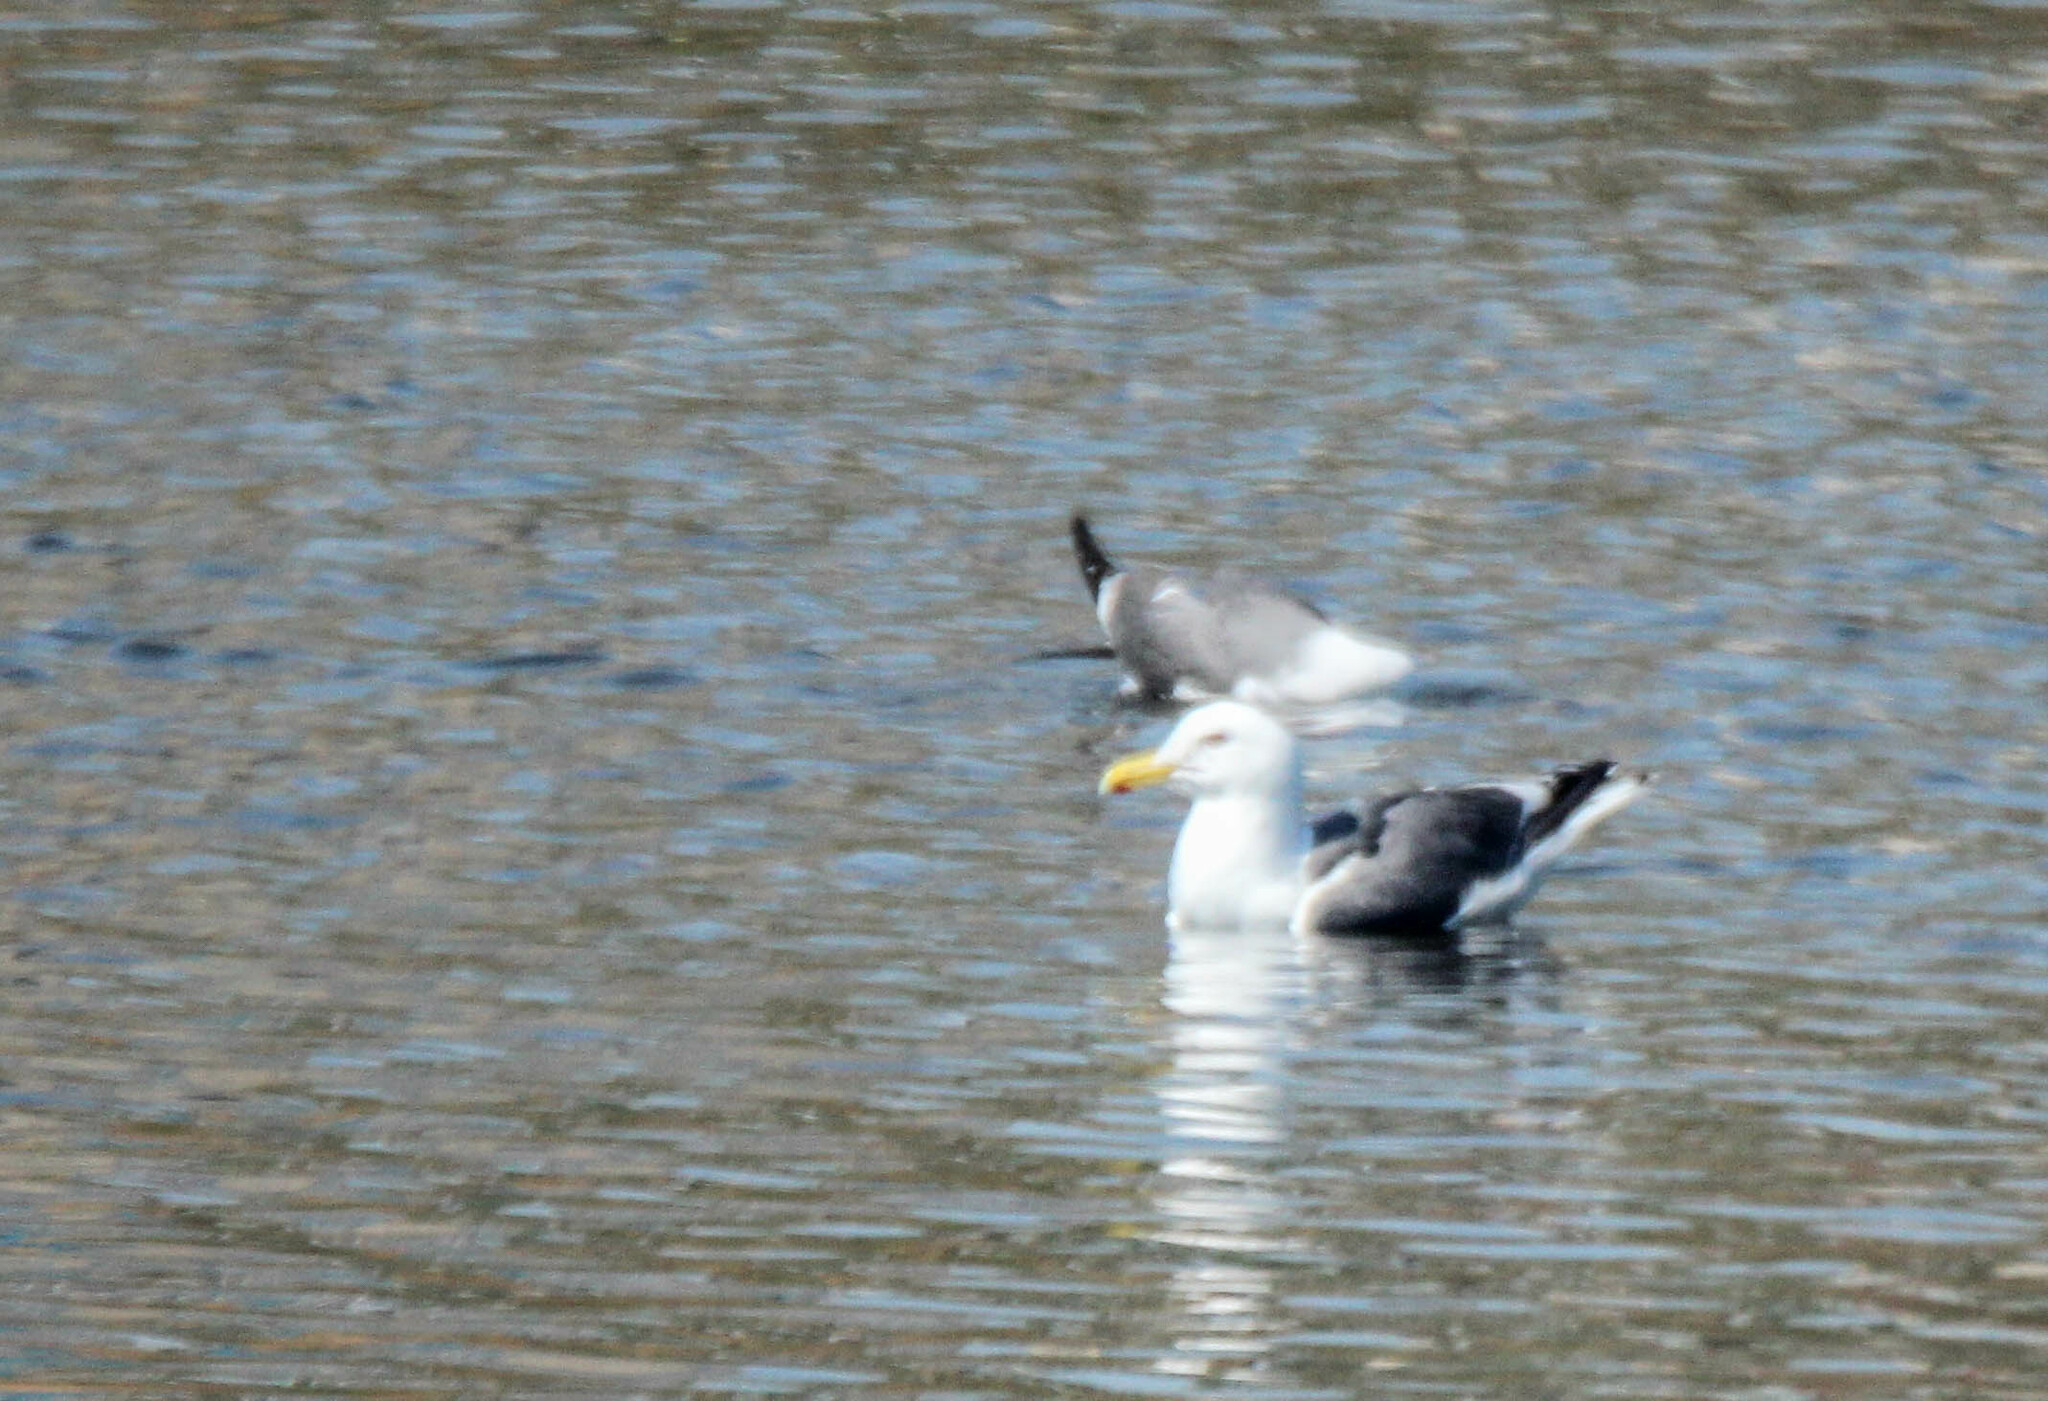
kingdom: Animalia
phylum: Chordata
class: Aves
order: Charadriiformes
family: Laridae
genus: Larus
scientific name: Larus schistisagus
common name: Slaty-backed gull
